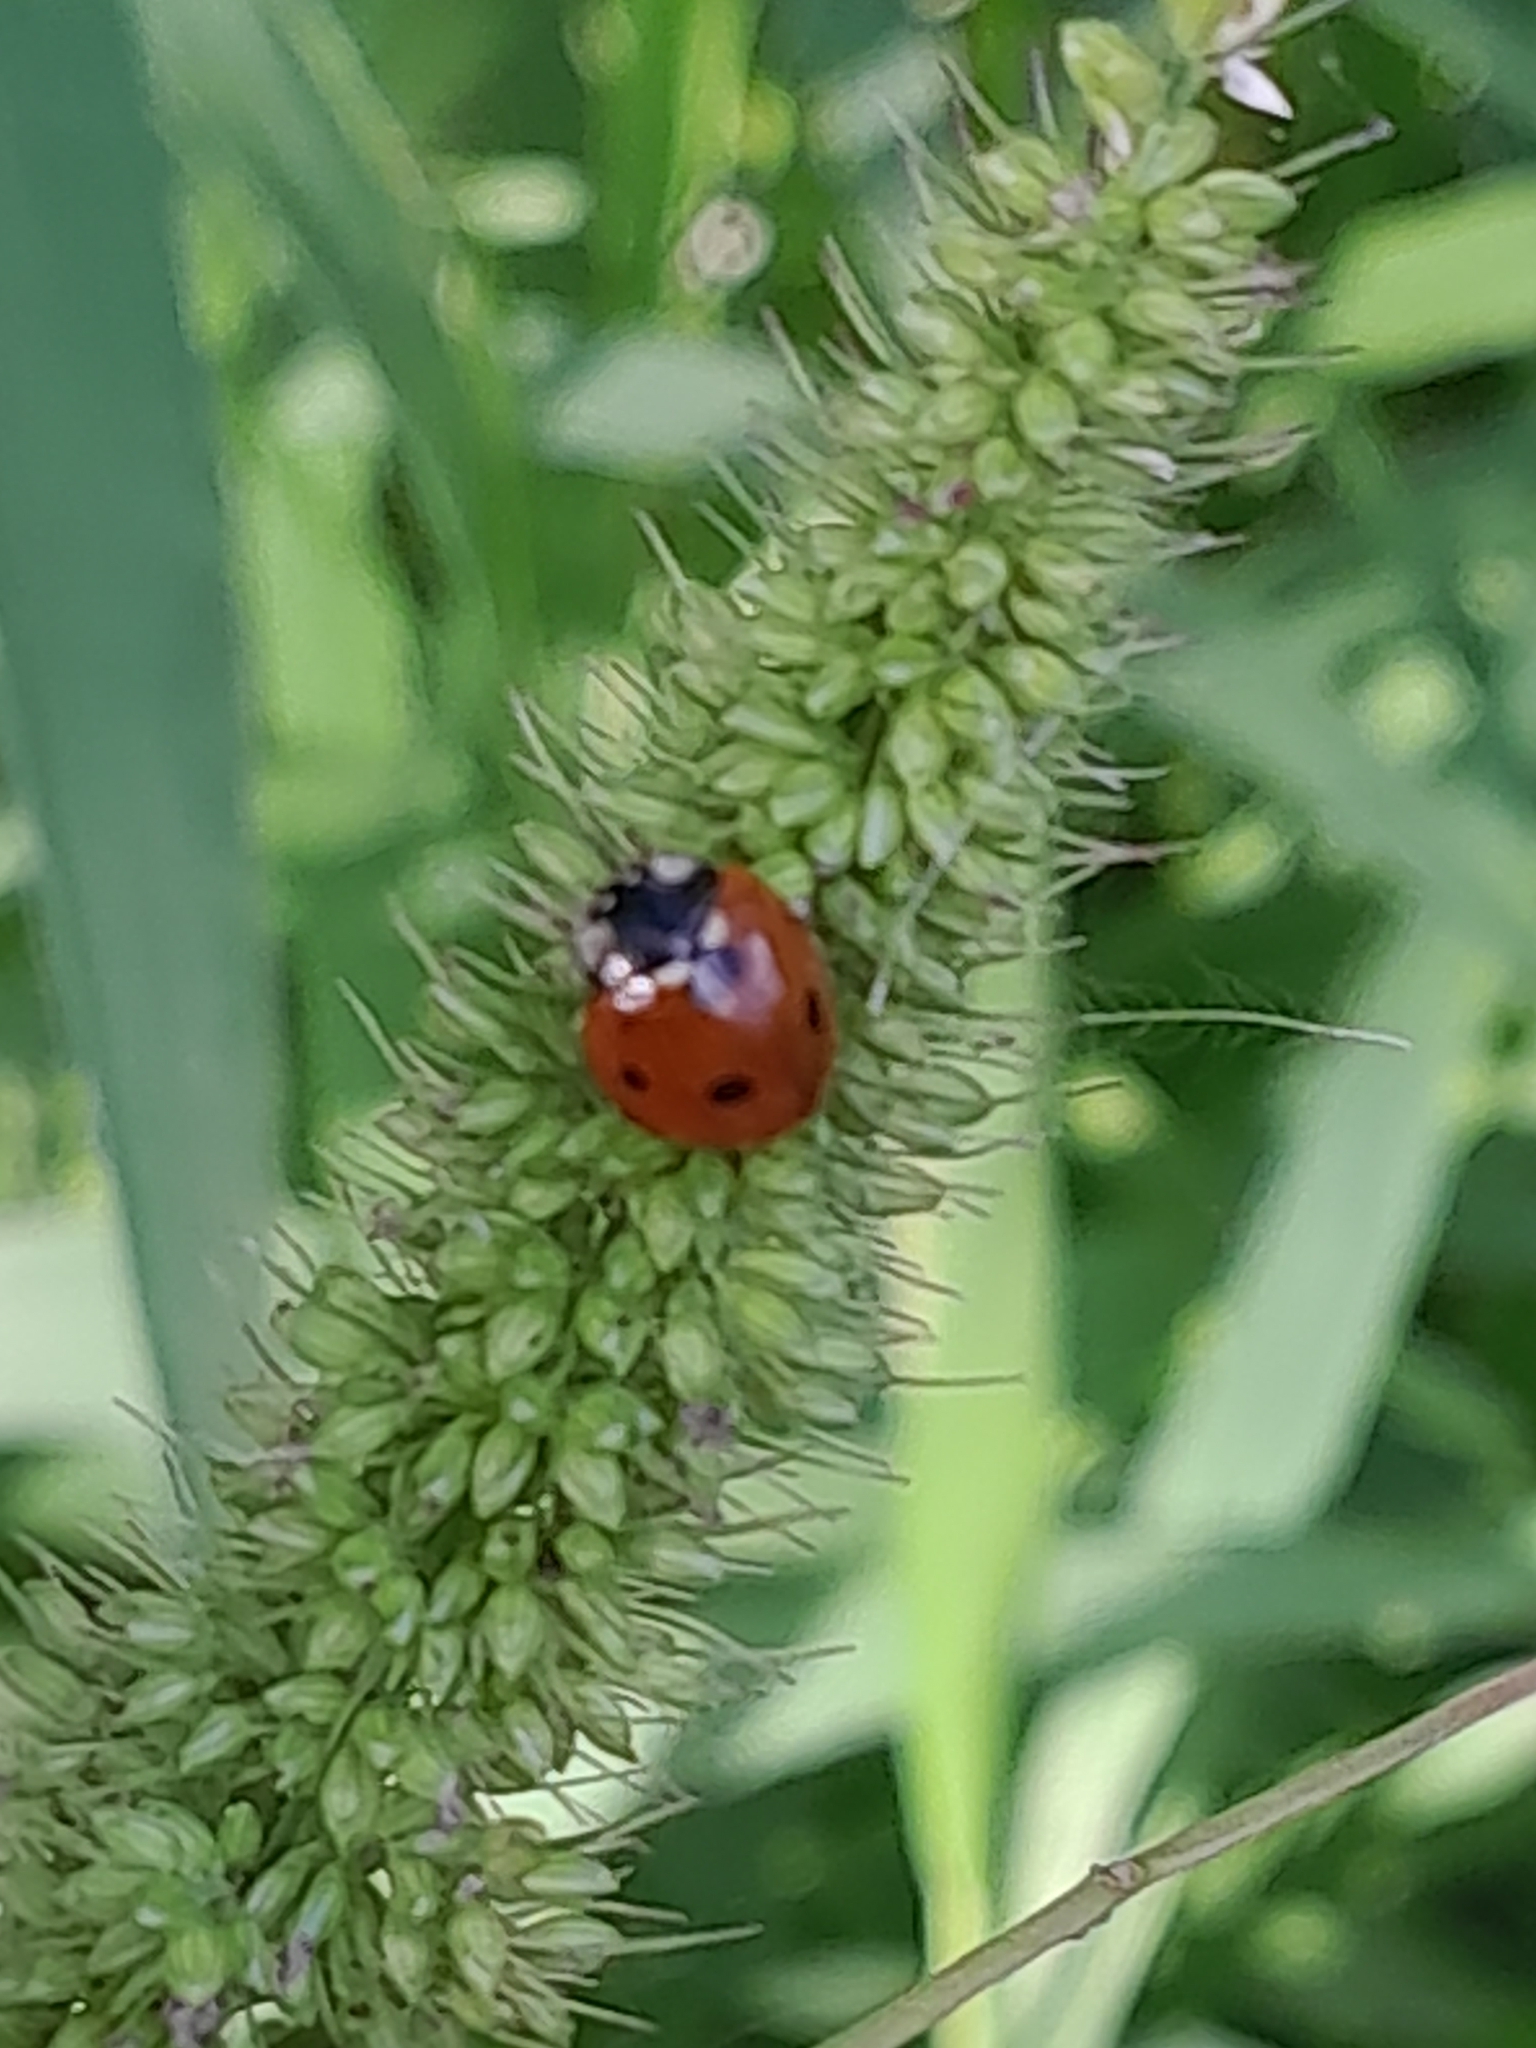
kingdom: Animalia
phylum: Arthropoda
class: Insecta
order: Coleoptera
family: Coccinellidae
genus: Coccinella
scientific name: Coccinella septempunctata
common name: Sevenspotted lady beetle
